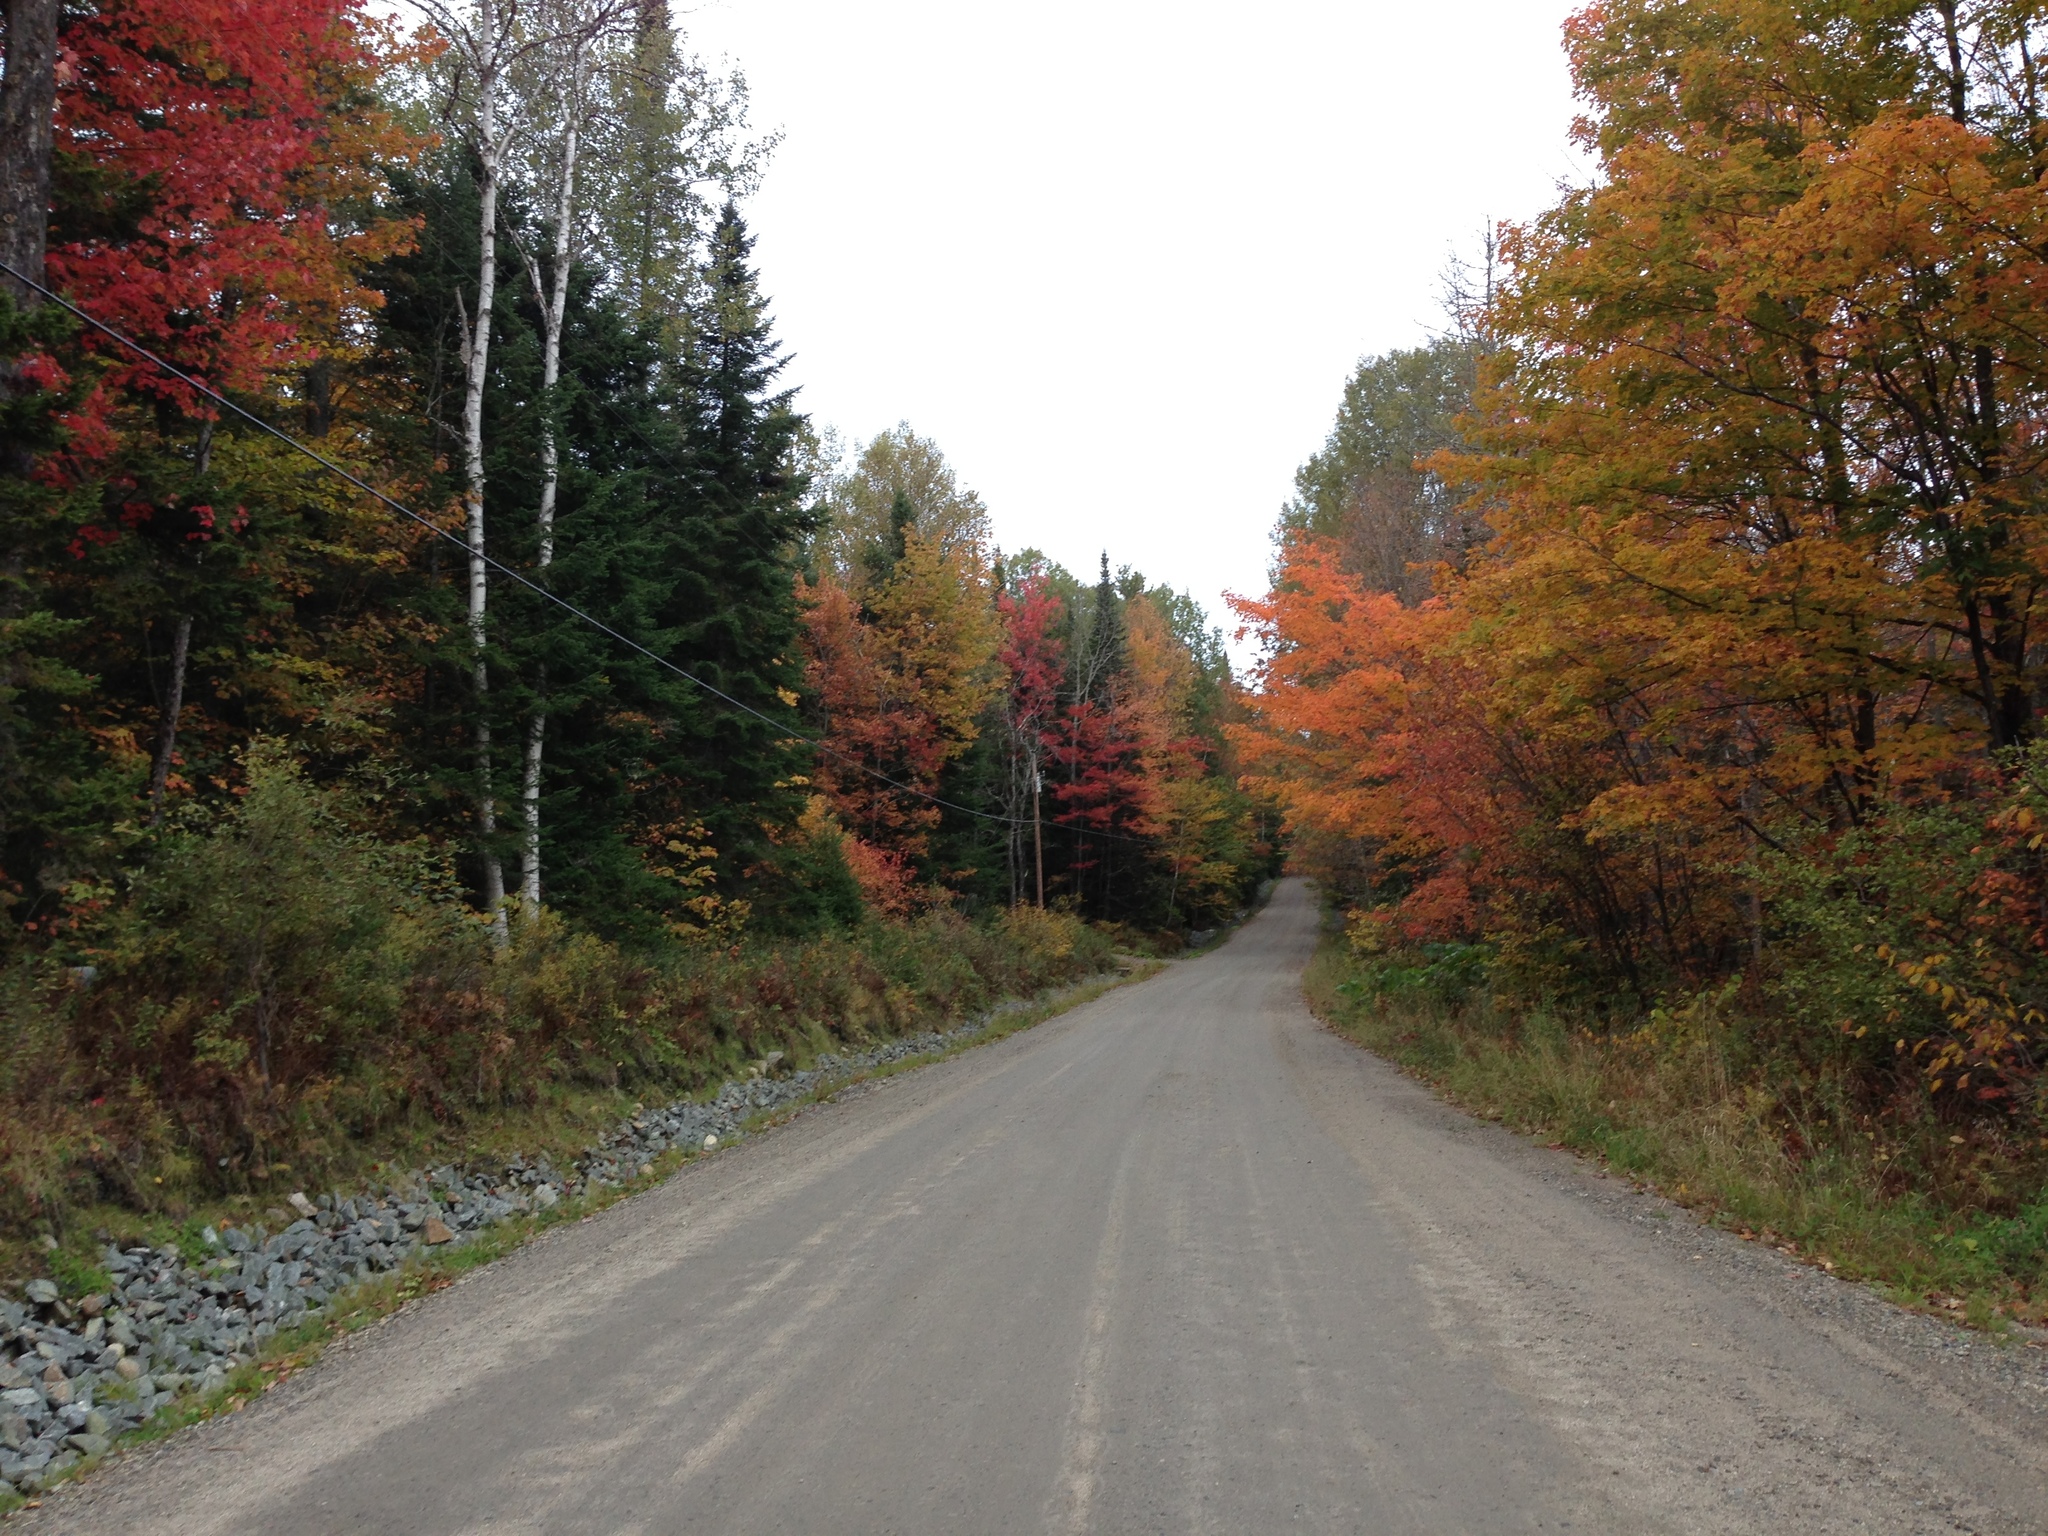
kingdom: Plantae
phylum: Tracheophyta
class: Magnoliopsida
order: Fagales
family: Betulaceae
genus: Betula
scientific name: Betula papyrifera
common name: Paper birch
